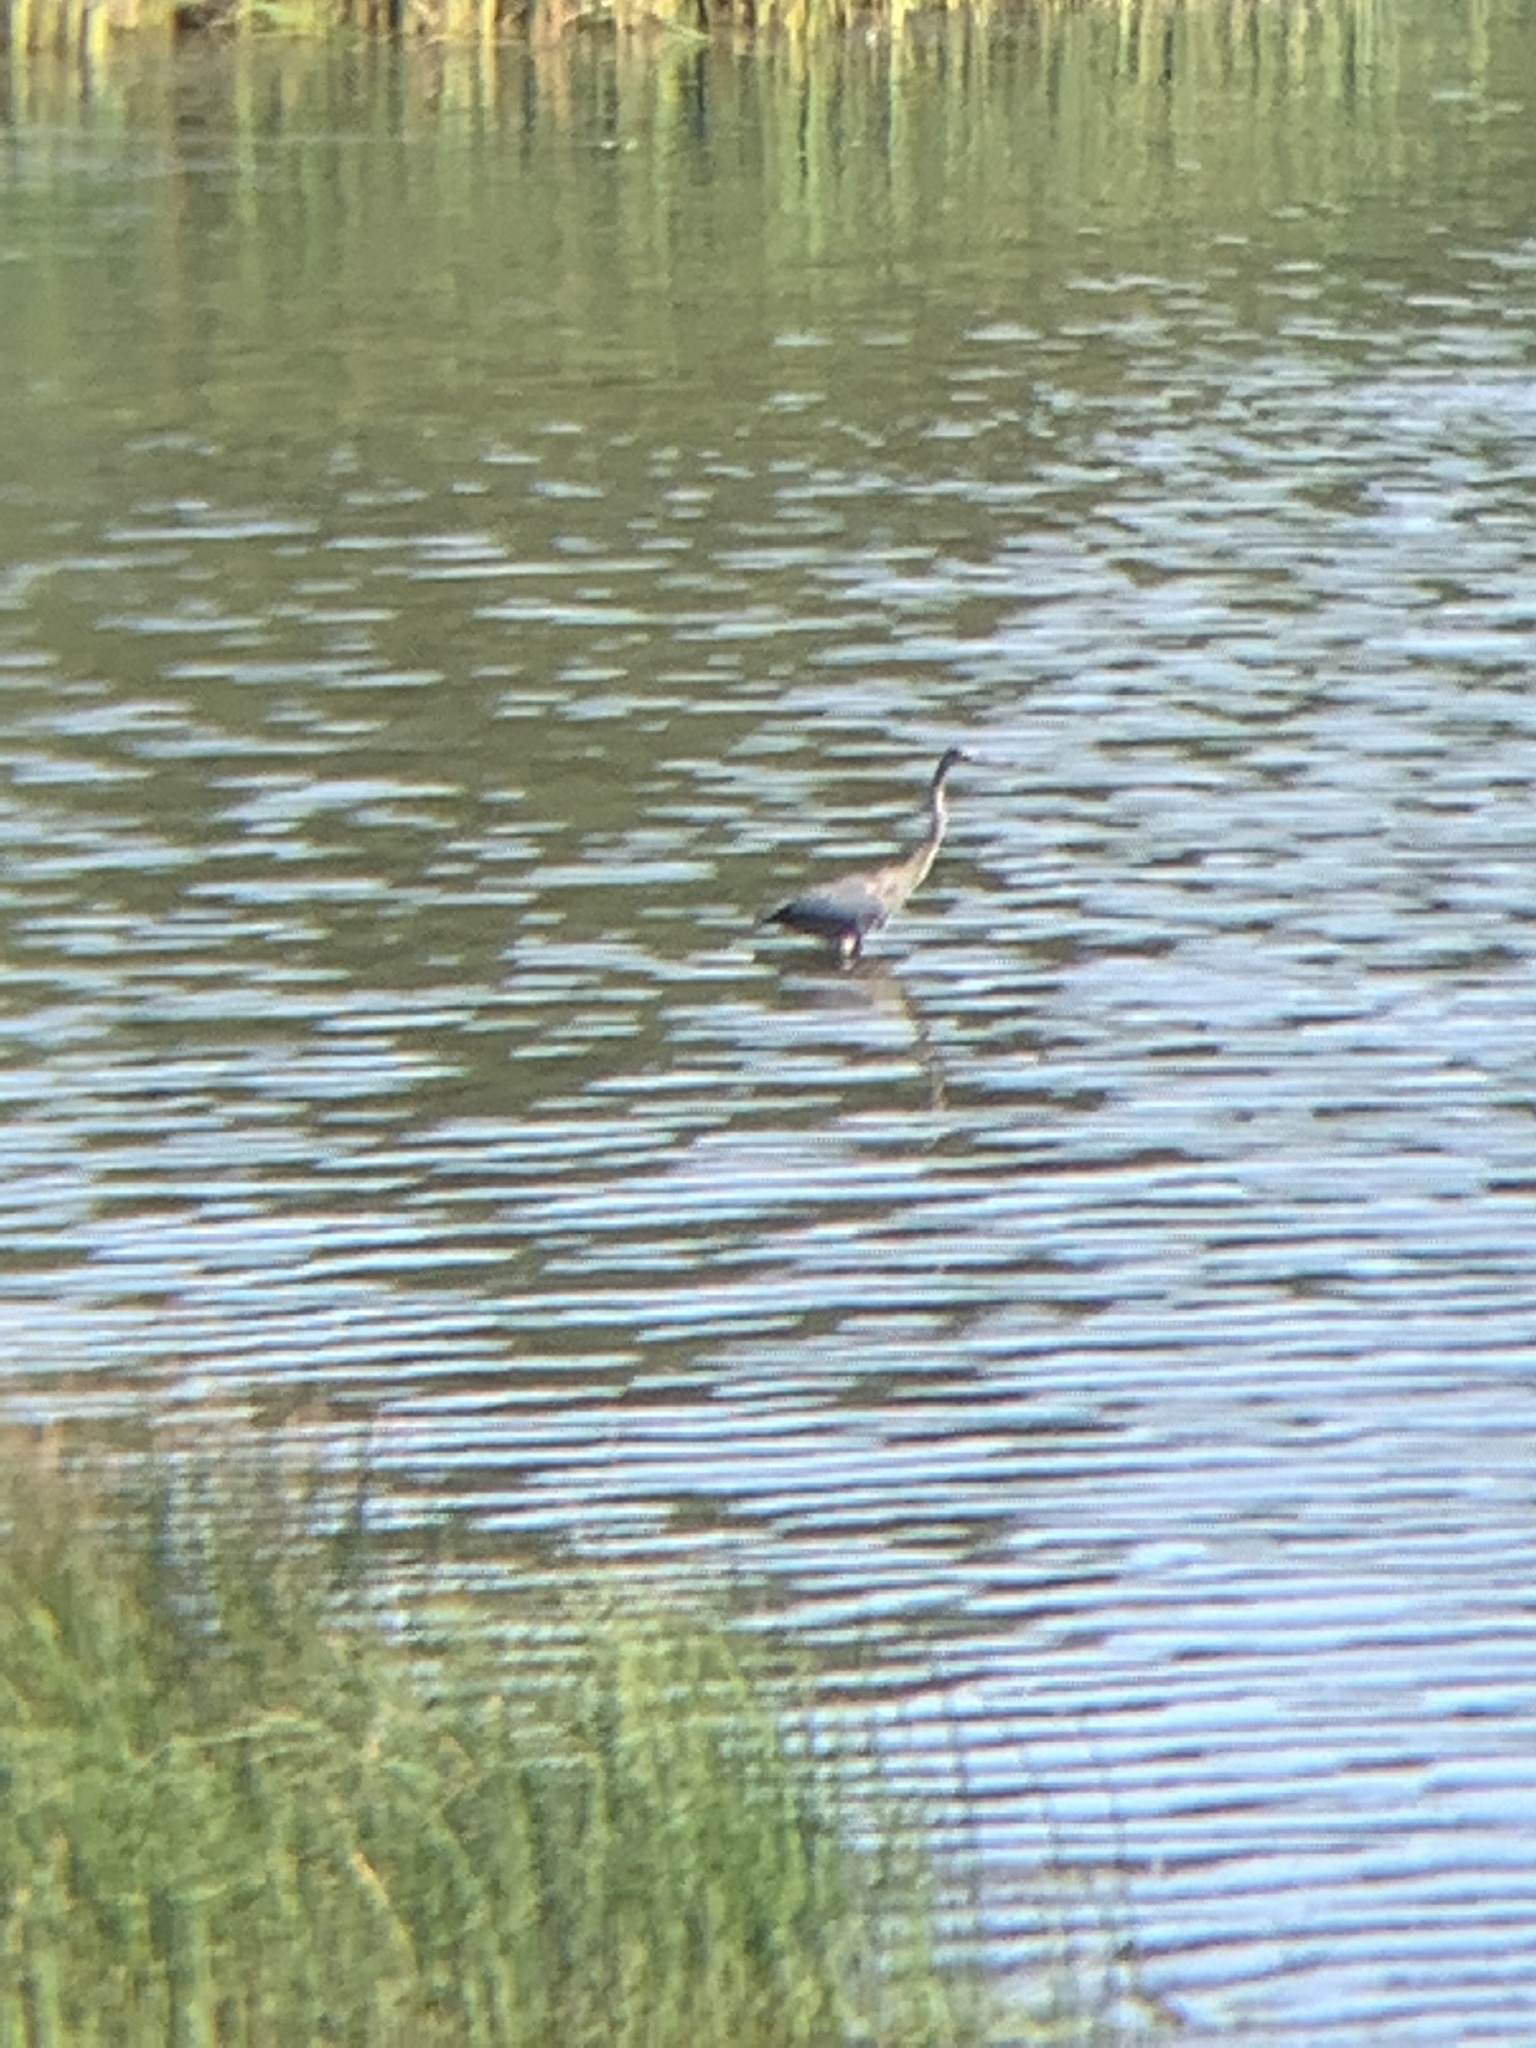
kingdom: Animalia
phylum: Chordata
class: Aves
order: Pelecaniformes
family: Ardeidae
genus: Ardea
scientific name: Ardea herodias
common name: Great blue heron
